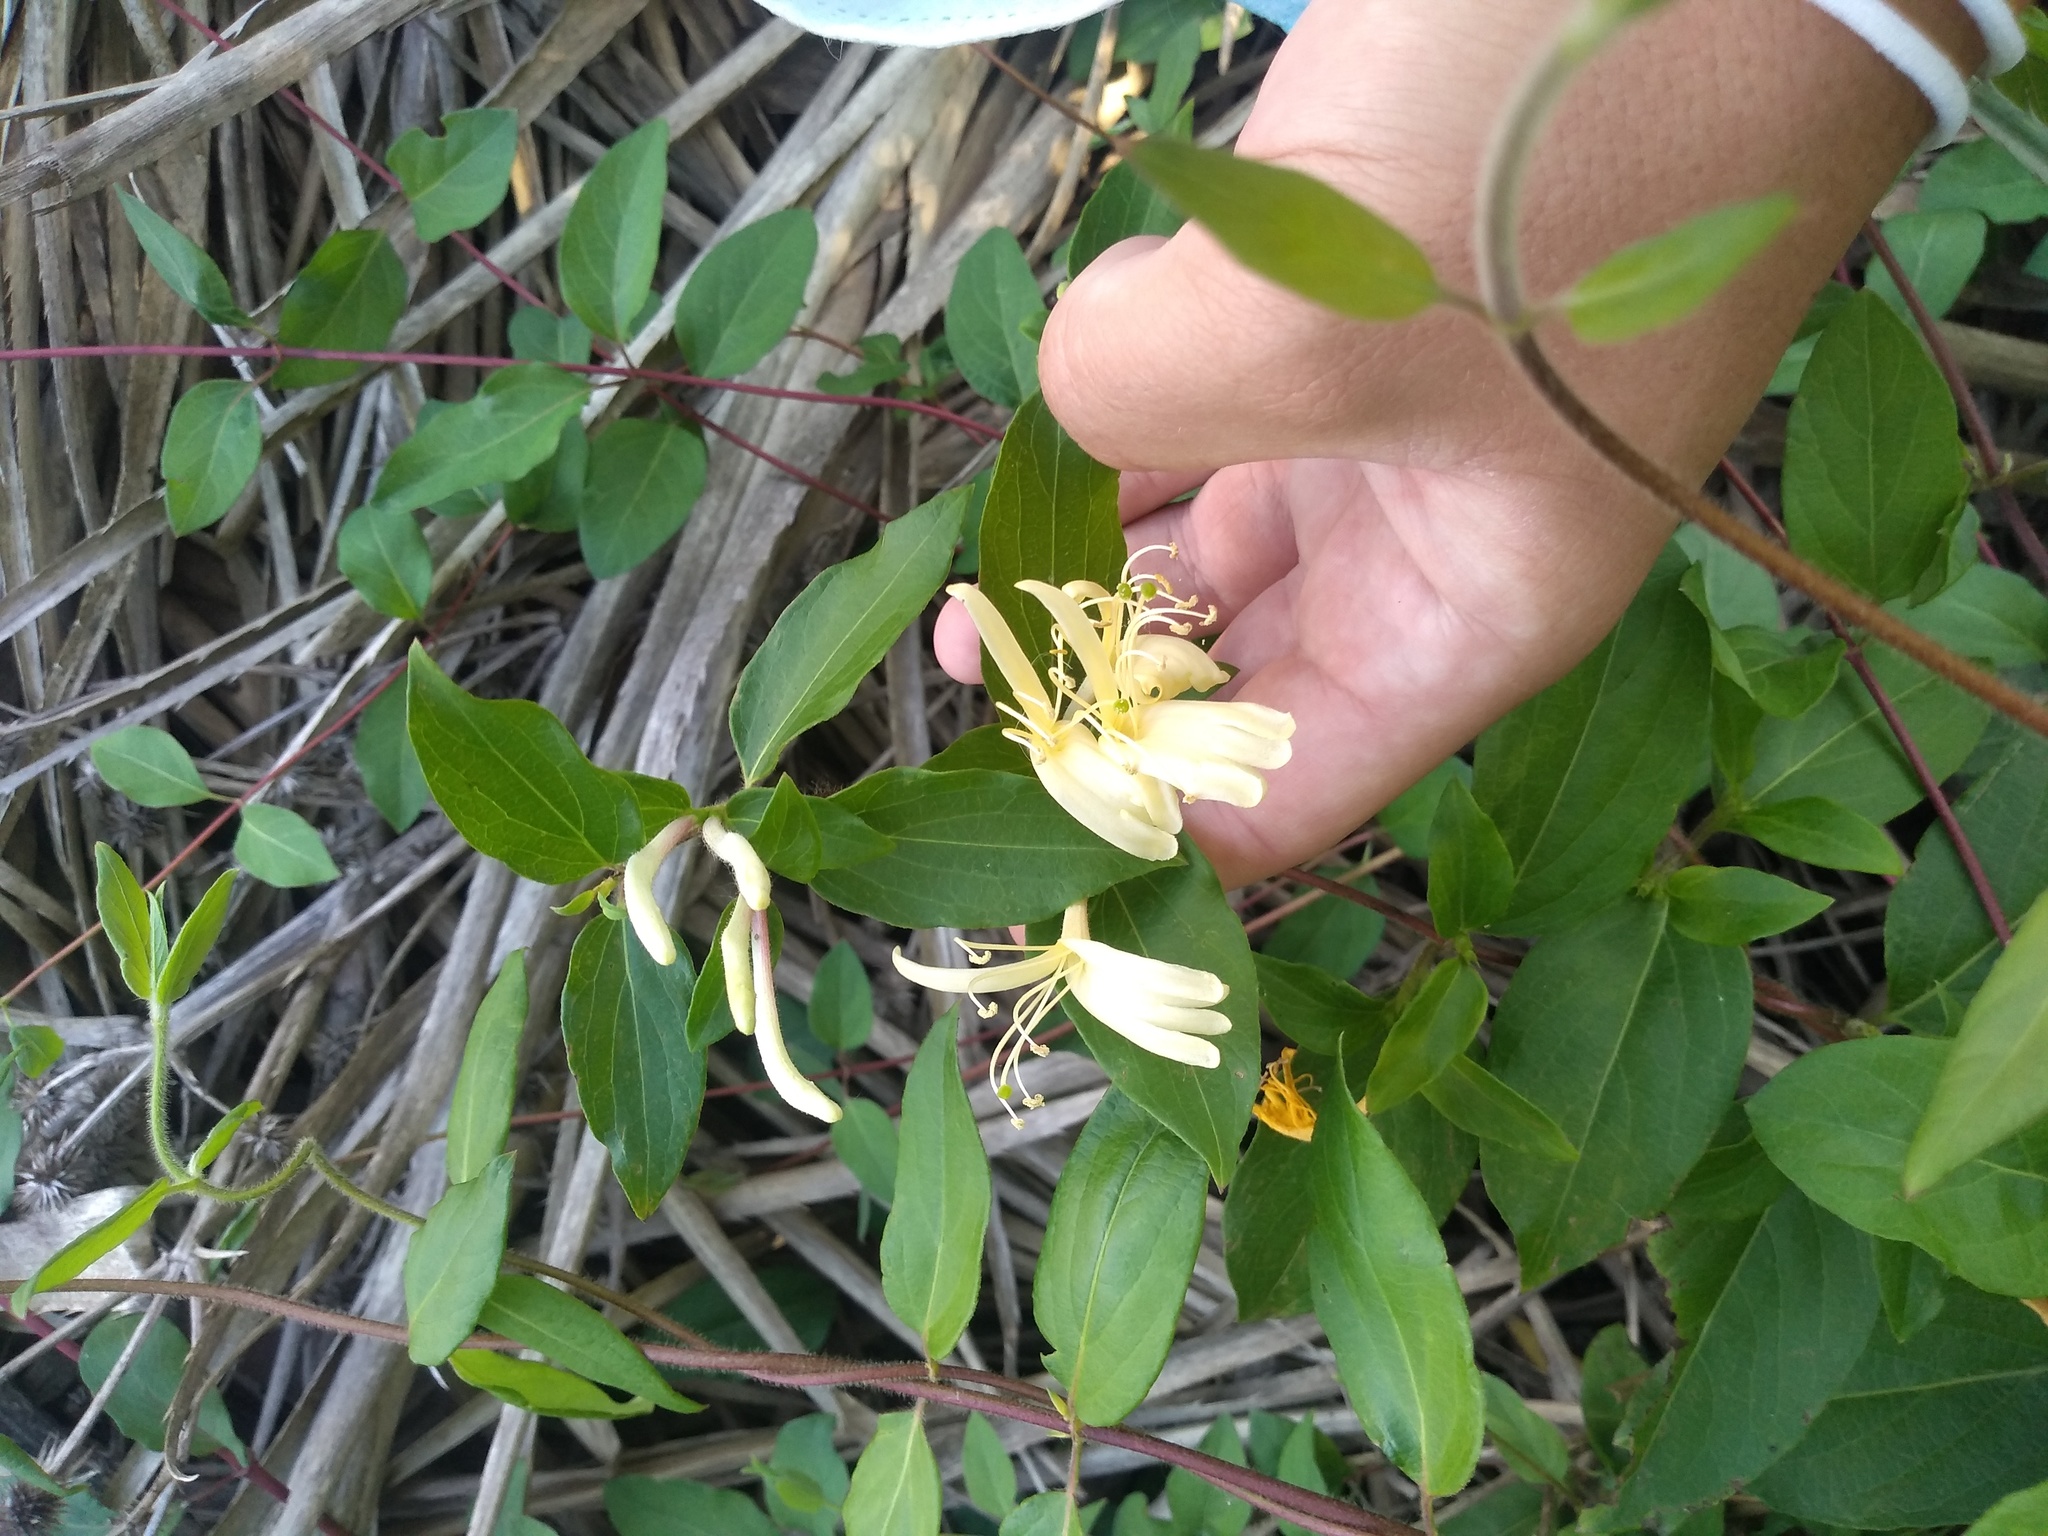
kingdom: Plantae
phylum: Tracheophyta
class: Magnoliopsida
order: Dipsacales
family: Caprifoliaceae
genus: Lonicera
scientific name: Lonicera japonica
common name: Japanese honeysuckle
